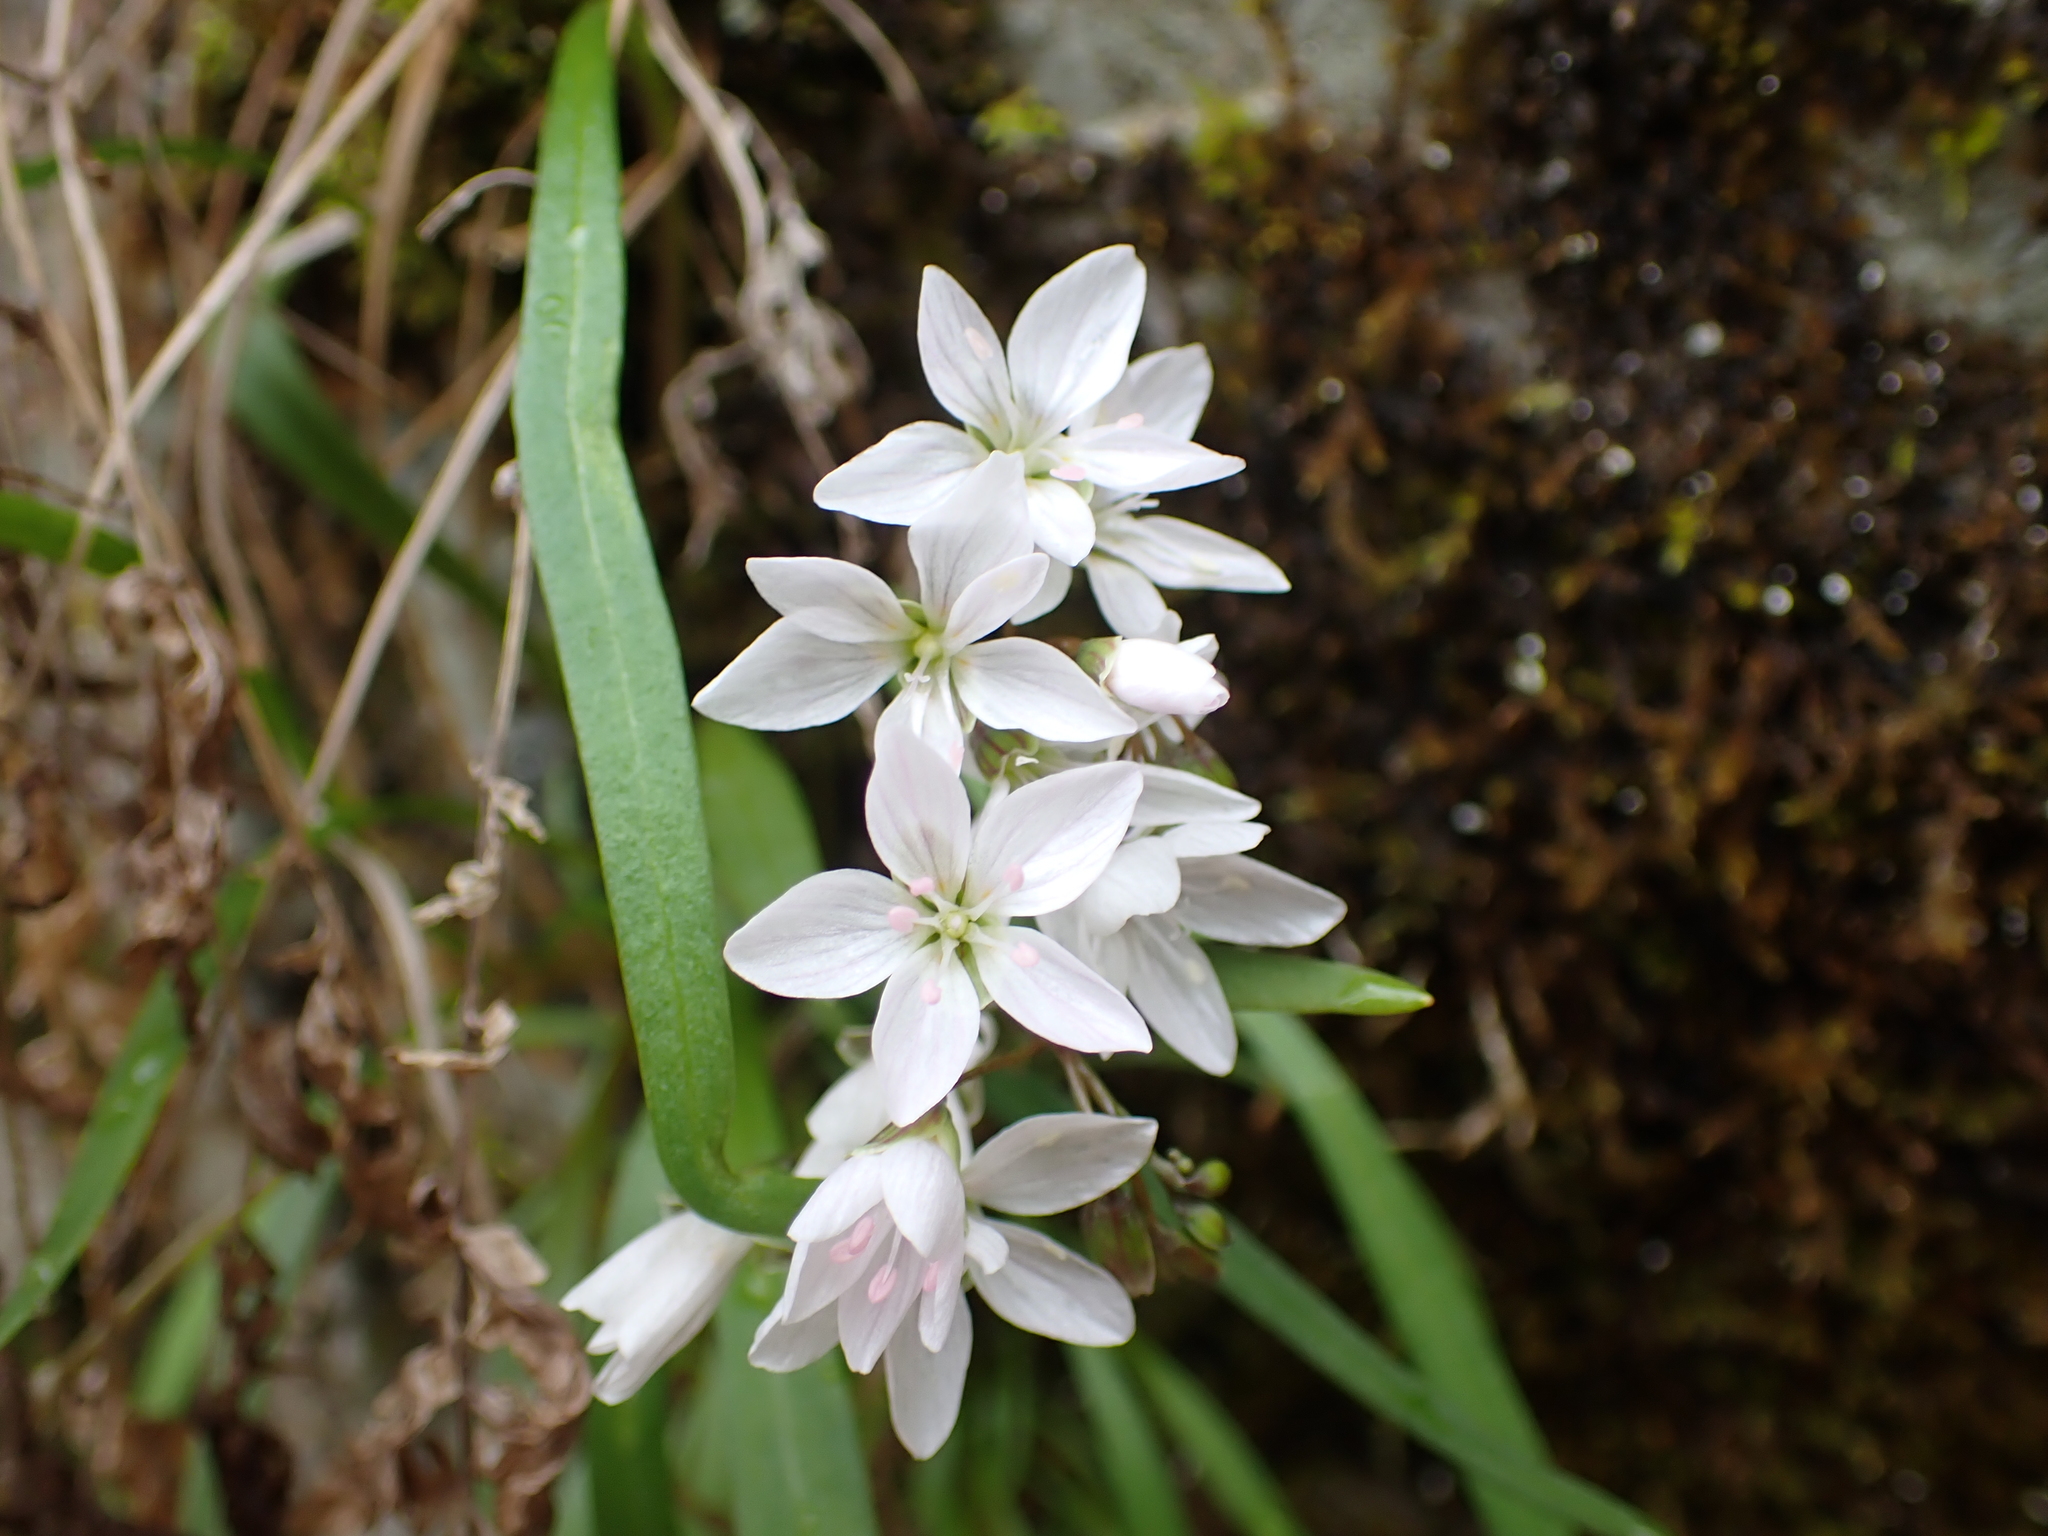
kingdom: Plantae
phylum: Tracheophyta
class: Magnoliopsida
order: Caryophyllales
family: Montiaceae
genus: Claytonia
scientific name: Claytonia virginica
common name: Virginia springbeauty
